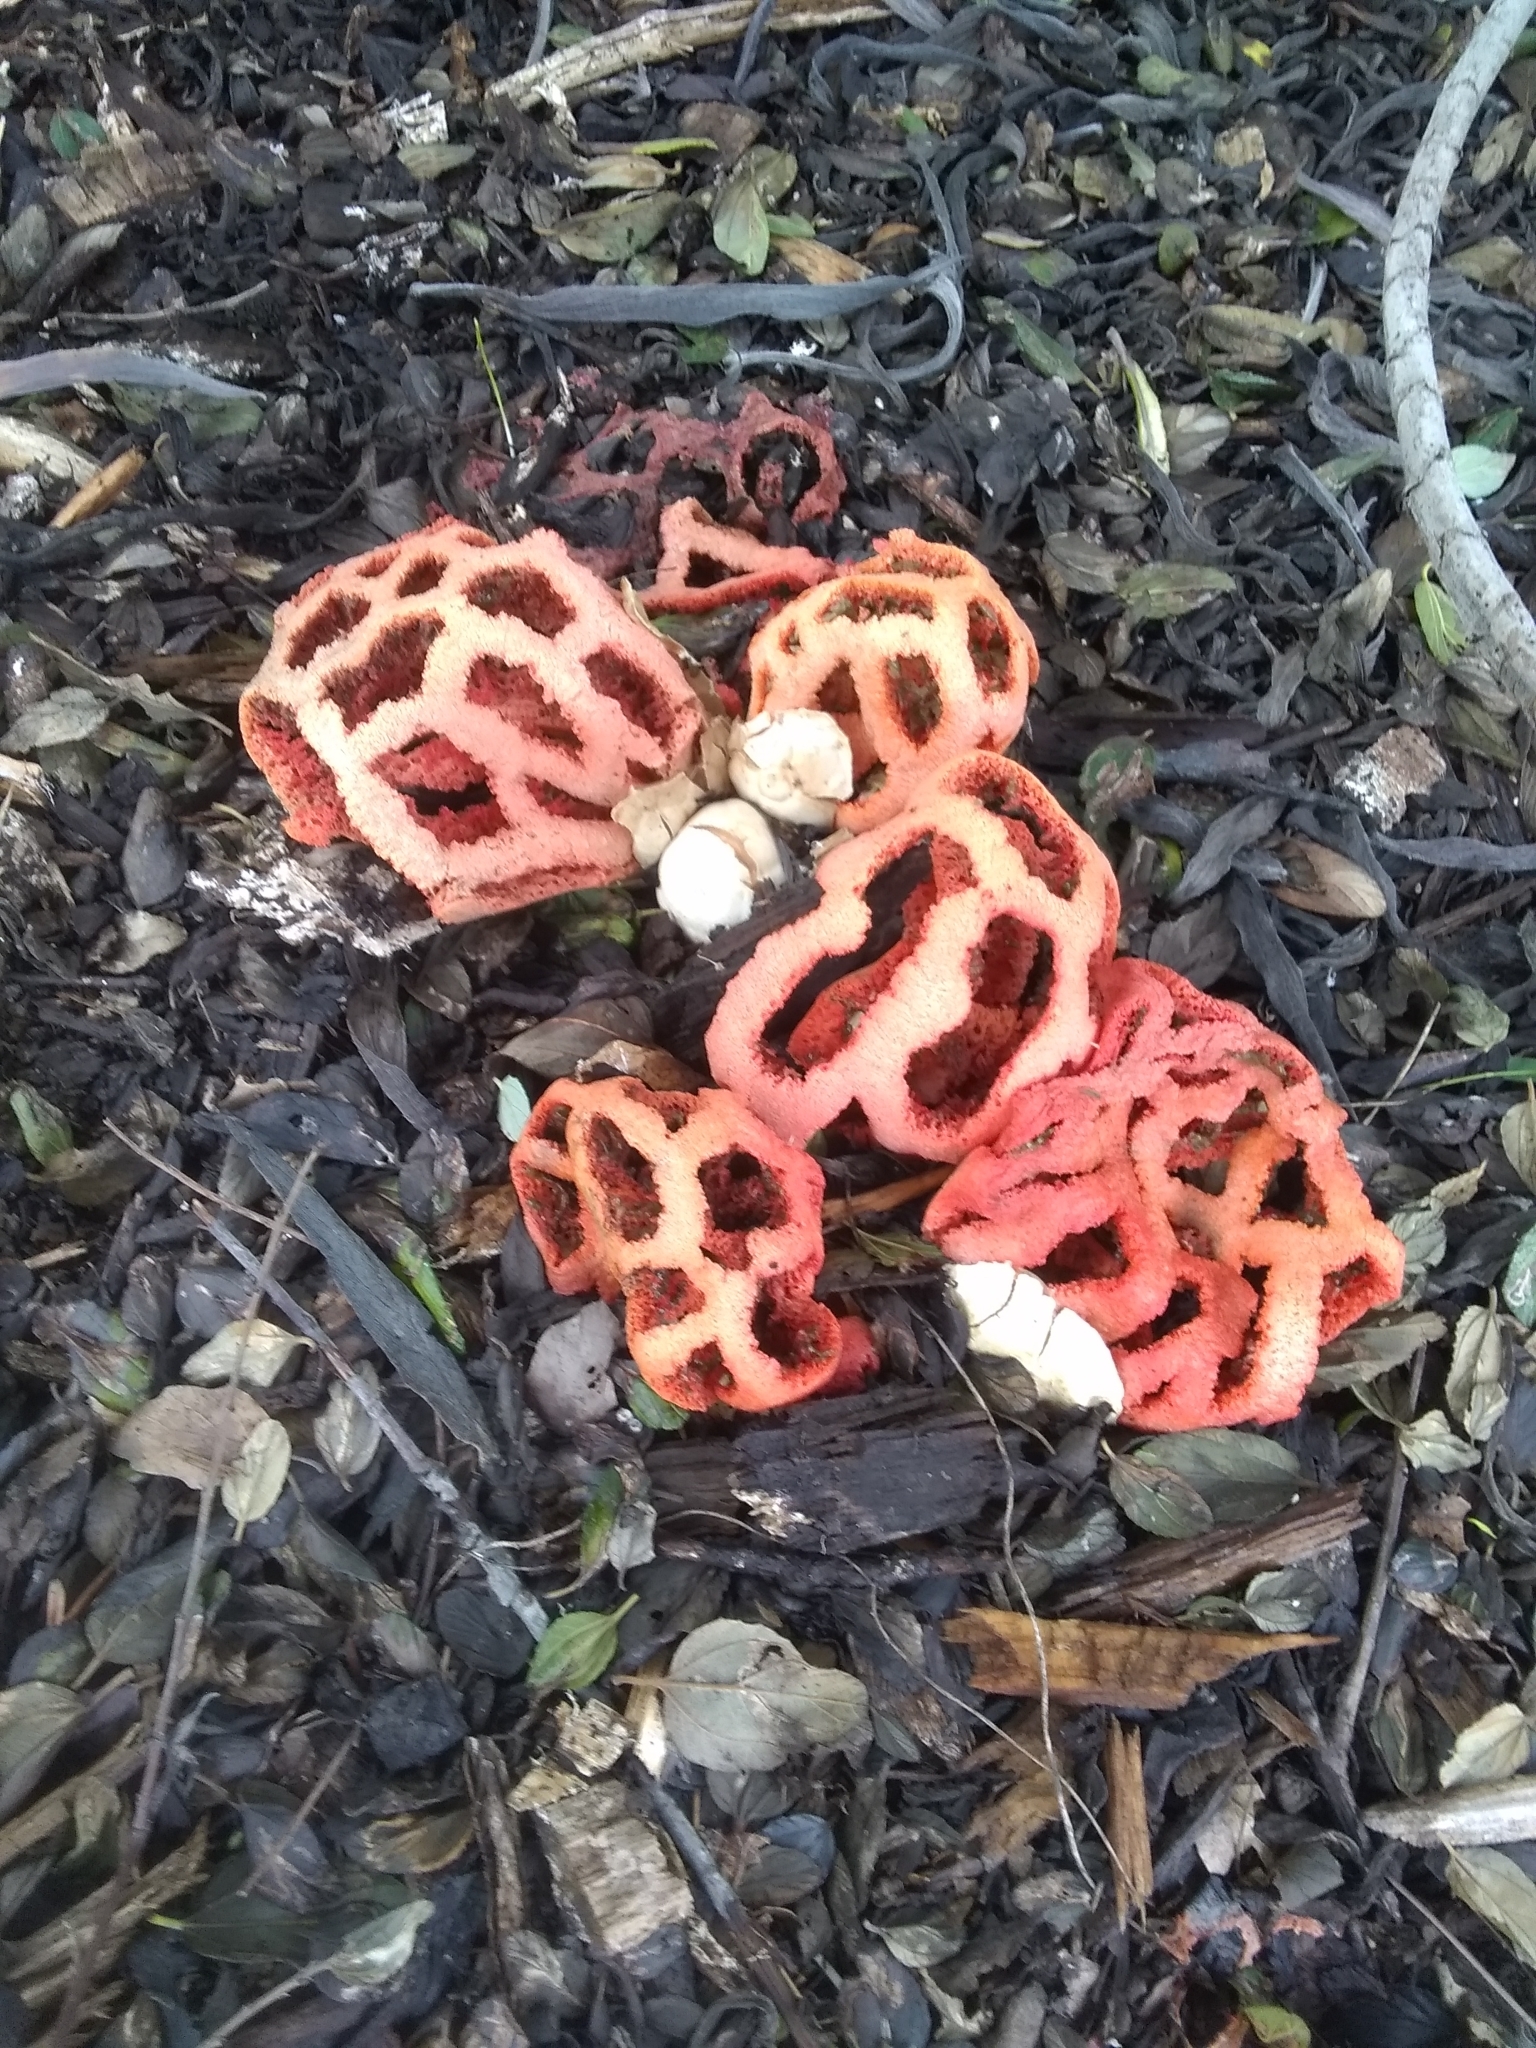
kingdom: Fungi
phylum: Basidiomycota
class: Agaricomycetes
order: Phallales
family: Phallaceae
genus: Clathrus
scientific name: Clathrus ruber
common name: Red cage
